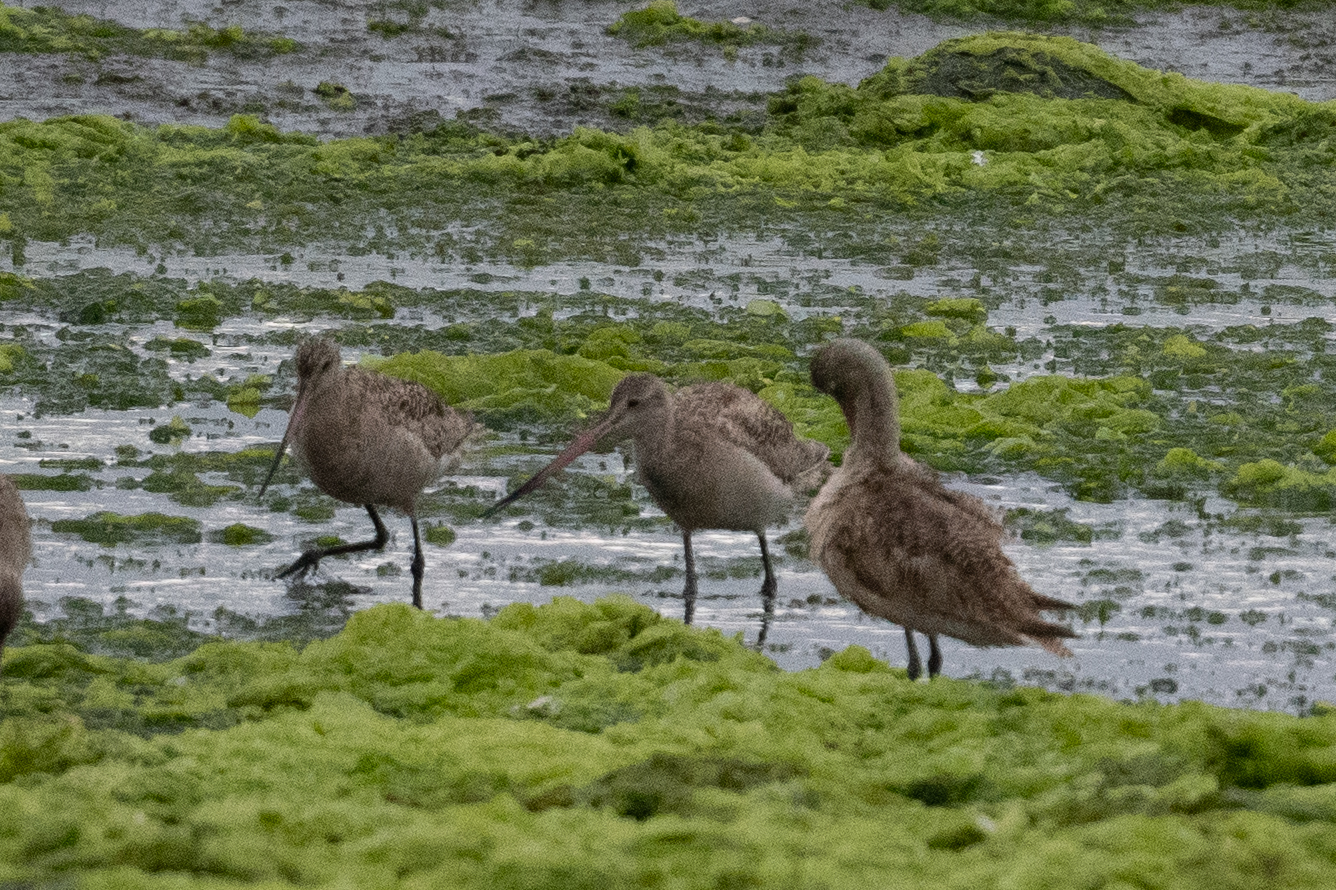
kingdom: Animalia
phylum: Chordata
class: Aves
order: Charadriiformes
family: Scolopacidae
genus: Limosa
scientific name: Limosa fedoa
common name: Marbled godwit
